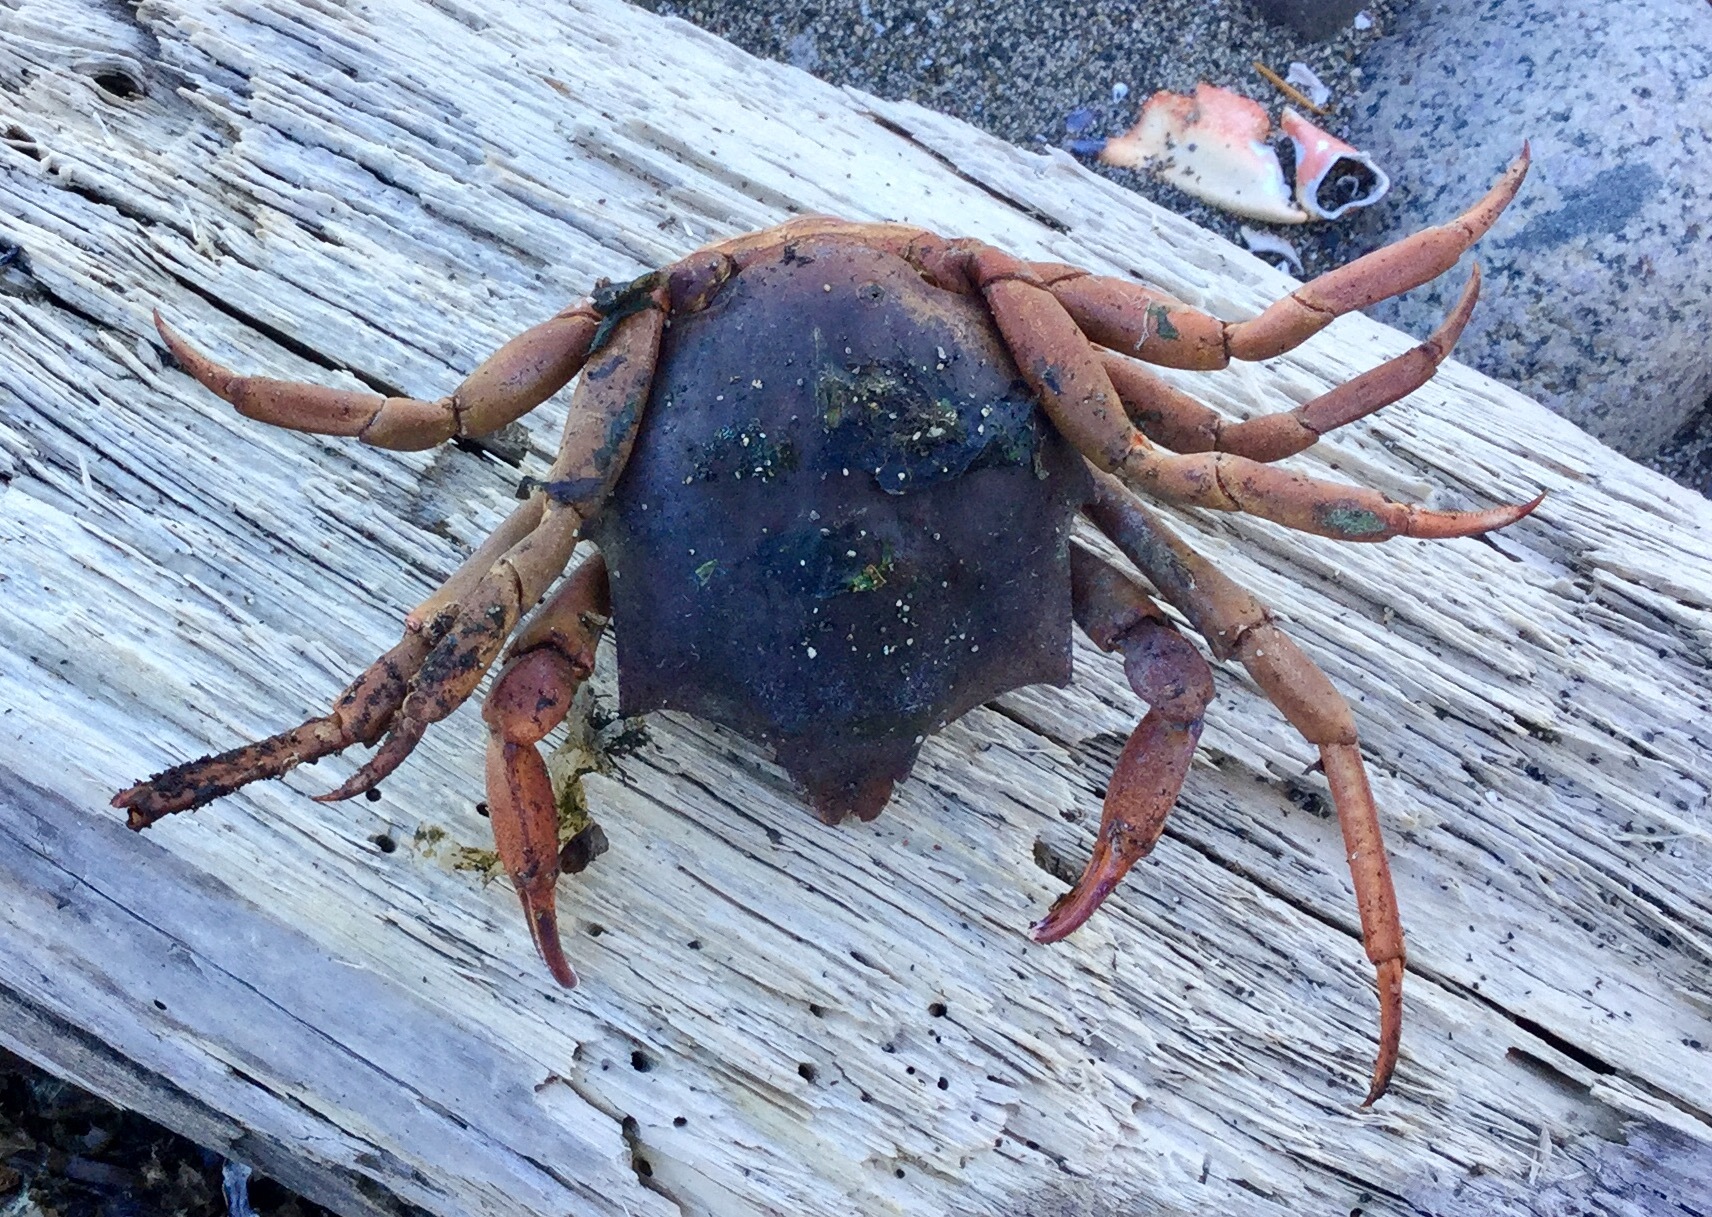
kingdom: Animalia
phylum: Arthropoda
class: Malacostraca
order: Decapoda
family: Epialtidae
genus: Pugettia
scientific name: Pugettia producta
